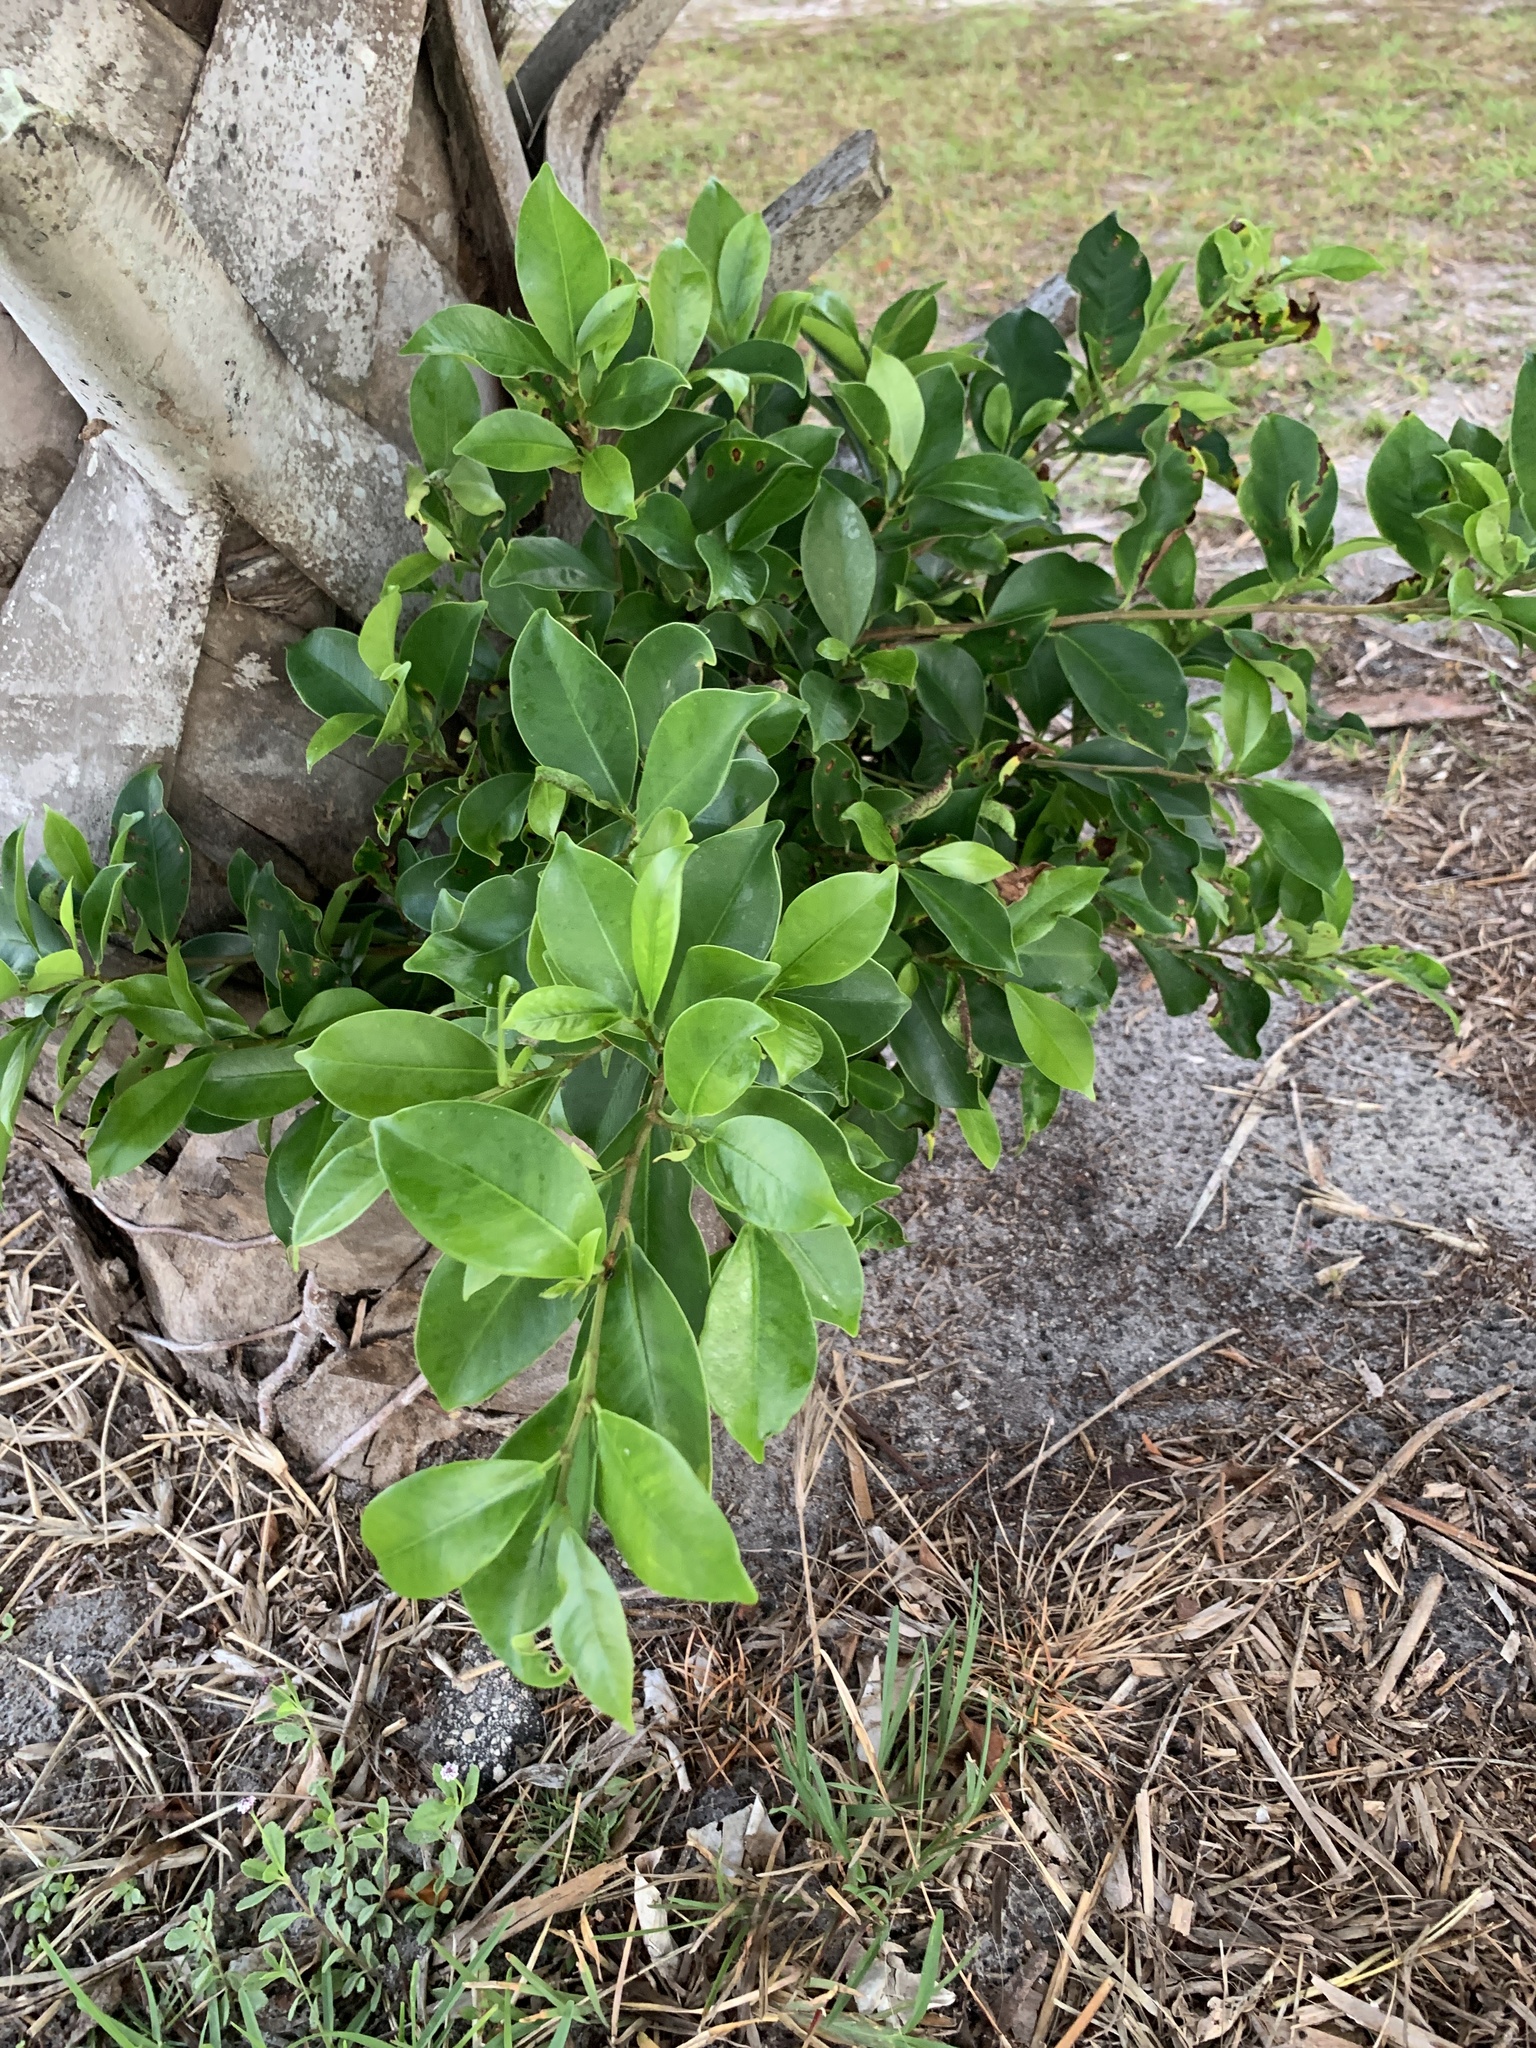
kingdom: Plantae
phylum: Tracheophyta
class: Magnoliopsida
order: Rosales
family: Moraceae
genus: Ficus
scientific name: Ficus microcarpa
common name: Chinese banyan
